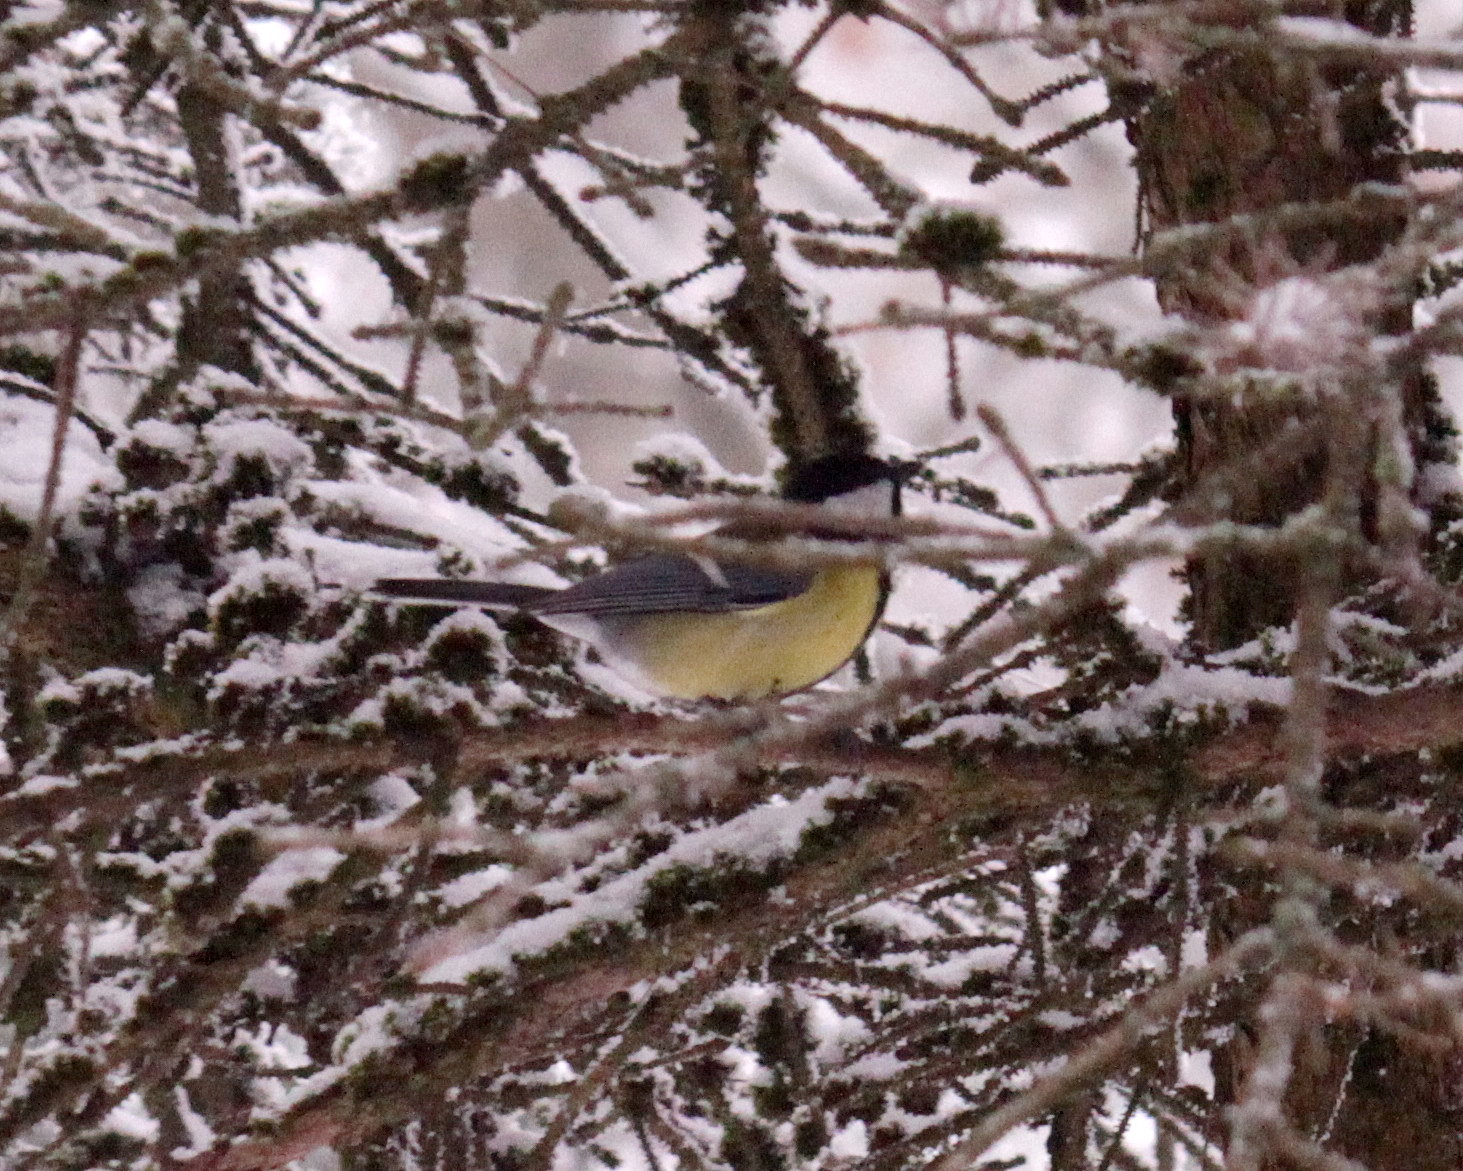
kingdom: Animalia
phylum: Chordata
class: Aves
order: Passeriformes
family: Paridae
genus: Parus
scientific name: Parus major
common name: Great tit
